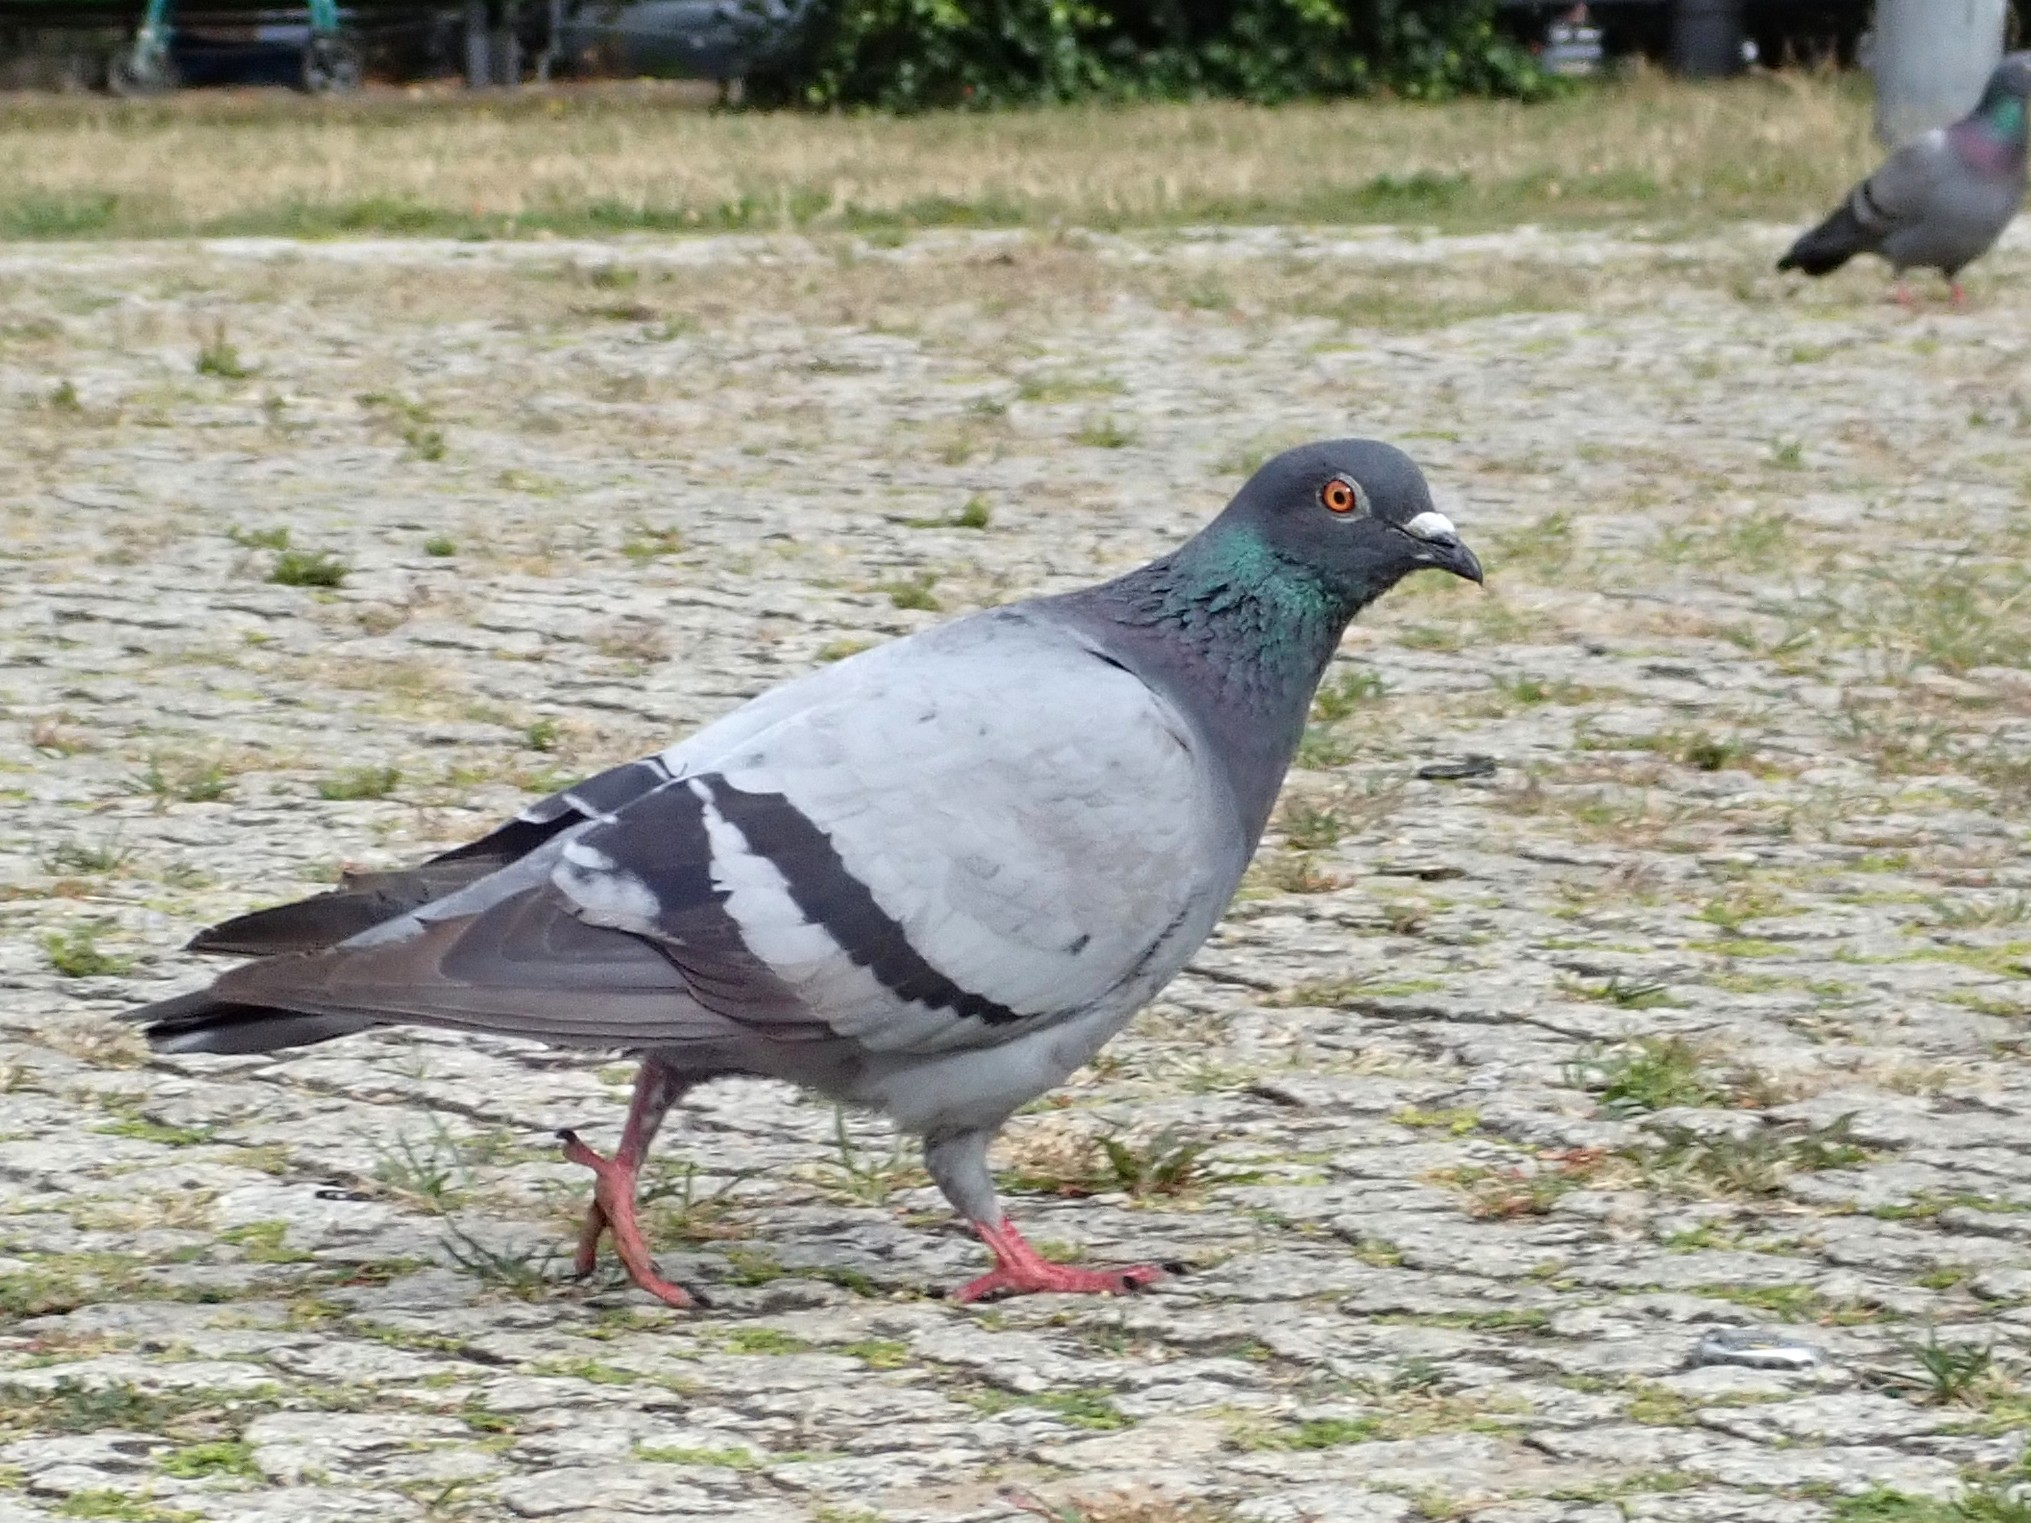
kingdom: Animalia
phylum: Chordata
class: Aves
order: Columbiformes
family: Columbidae
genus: Columba
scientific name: Columba livia
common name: Rock pigeon
